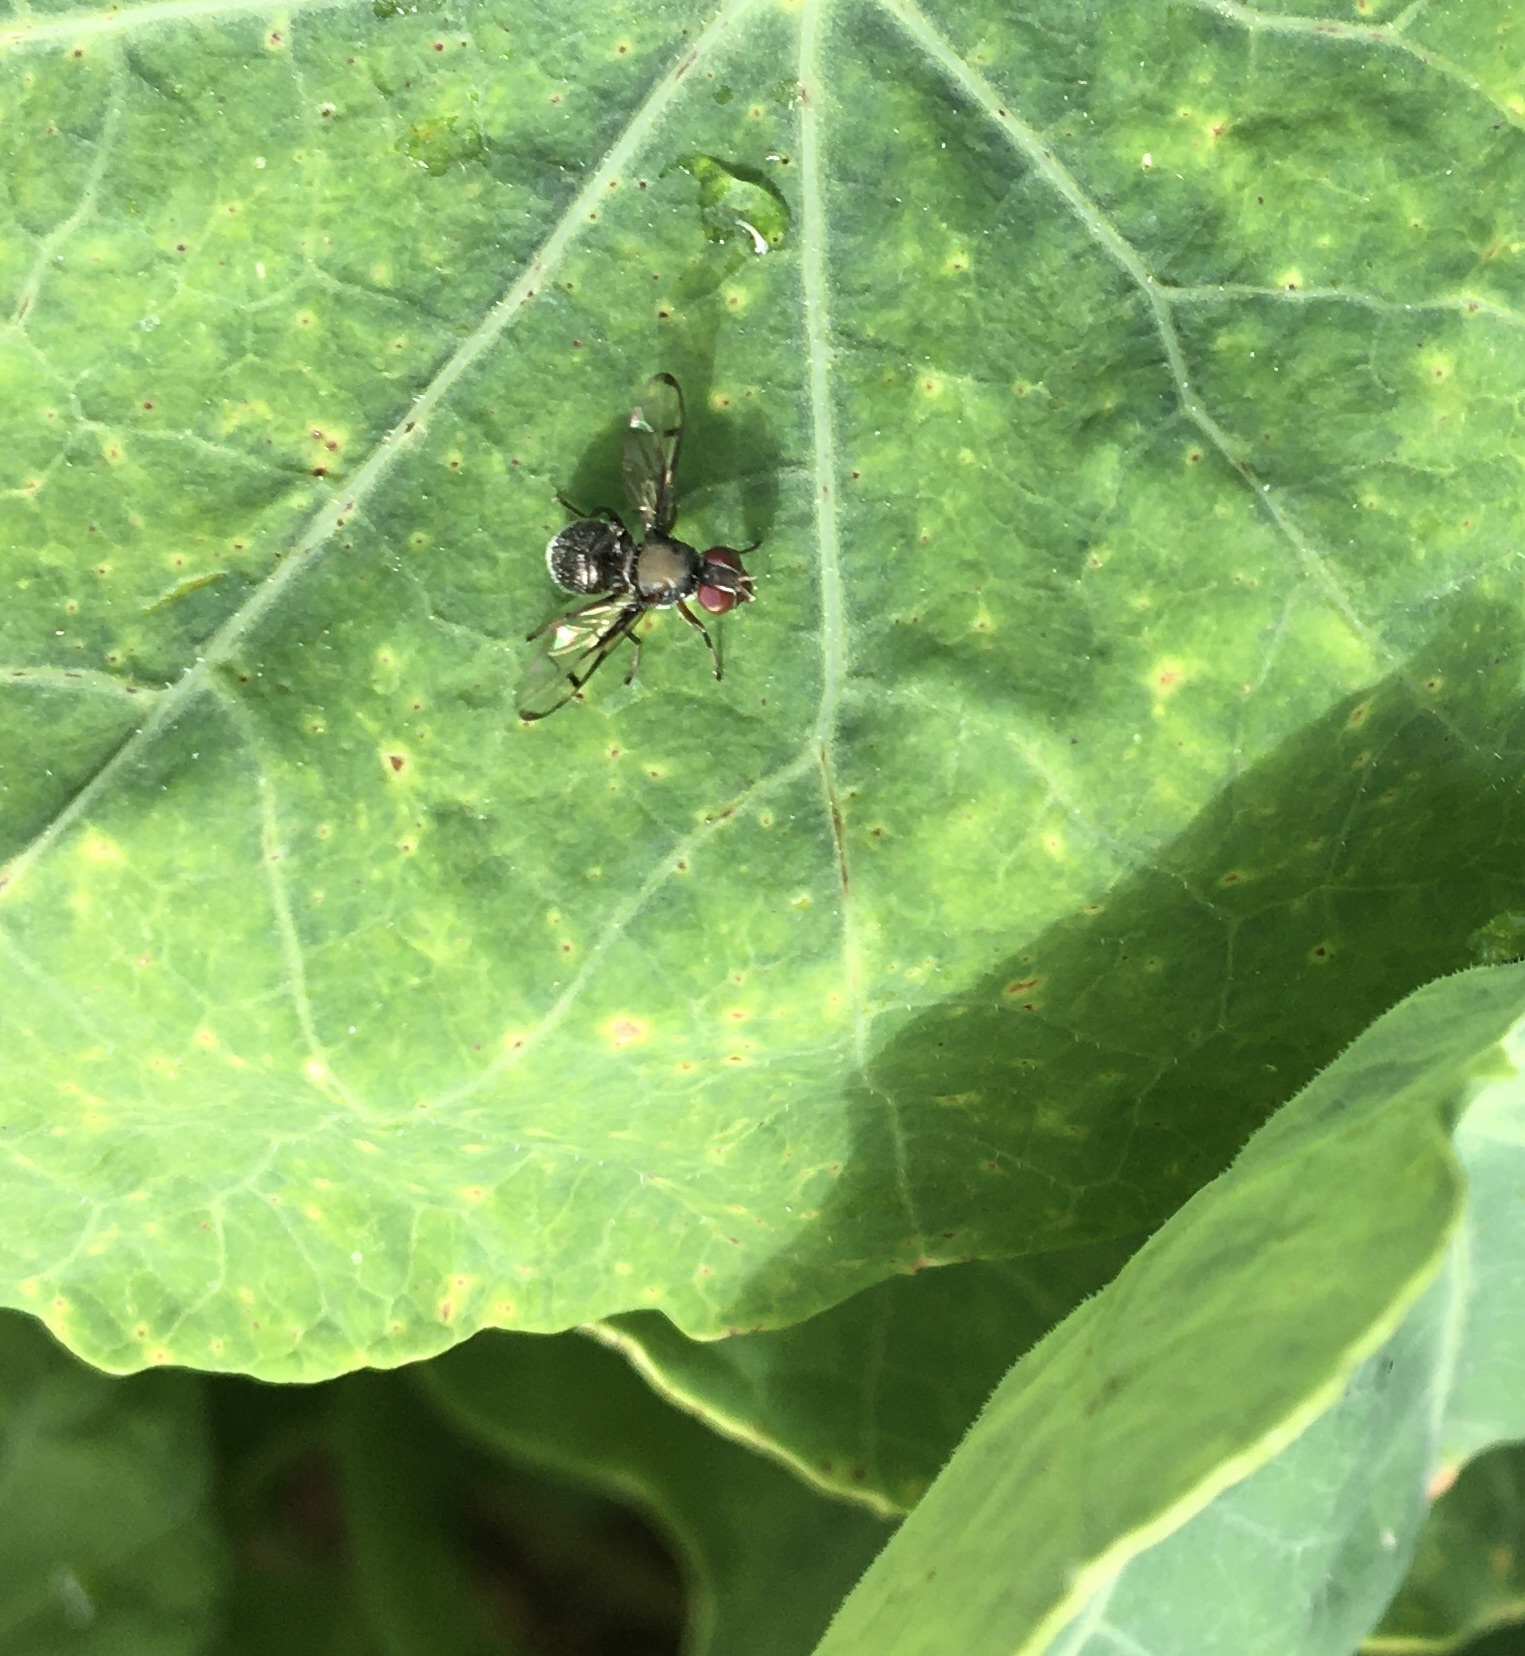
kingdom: Animalia
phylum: Arthropoda
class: Insecta
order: Diptera
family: Platystomatidae
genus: Pogonortalis
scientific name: Pogonortalis doclea
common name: Boatman fly
